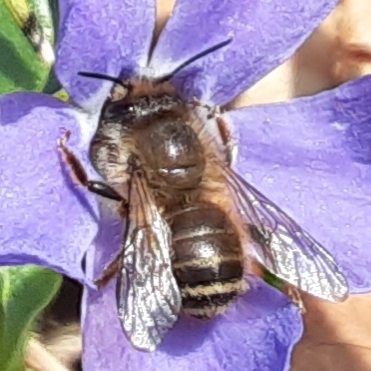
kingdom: Animalia
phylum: Arthropoda
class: Insecta
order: Hymenoptera
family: Megachilidae
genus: Osmia
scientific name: Osmia cornifrons
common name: Horn-faced bee
